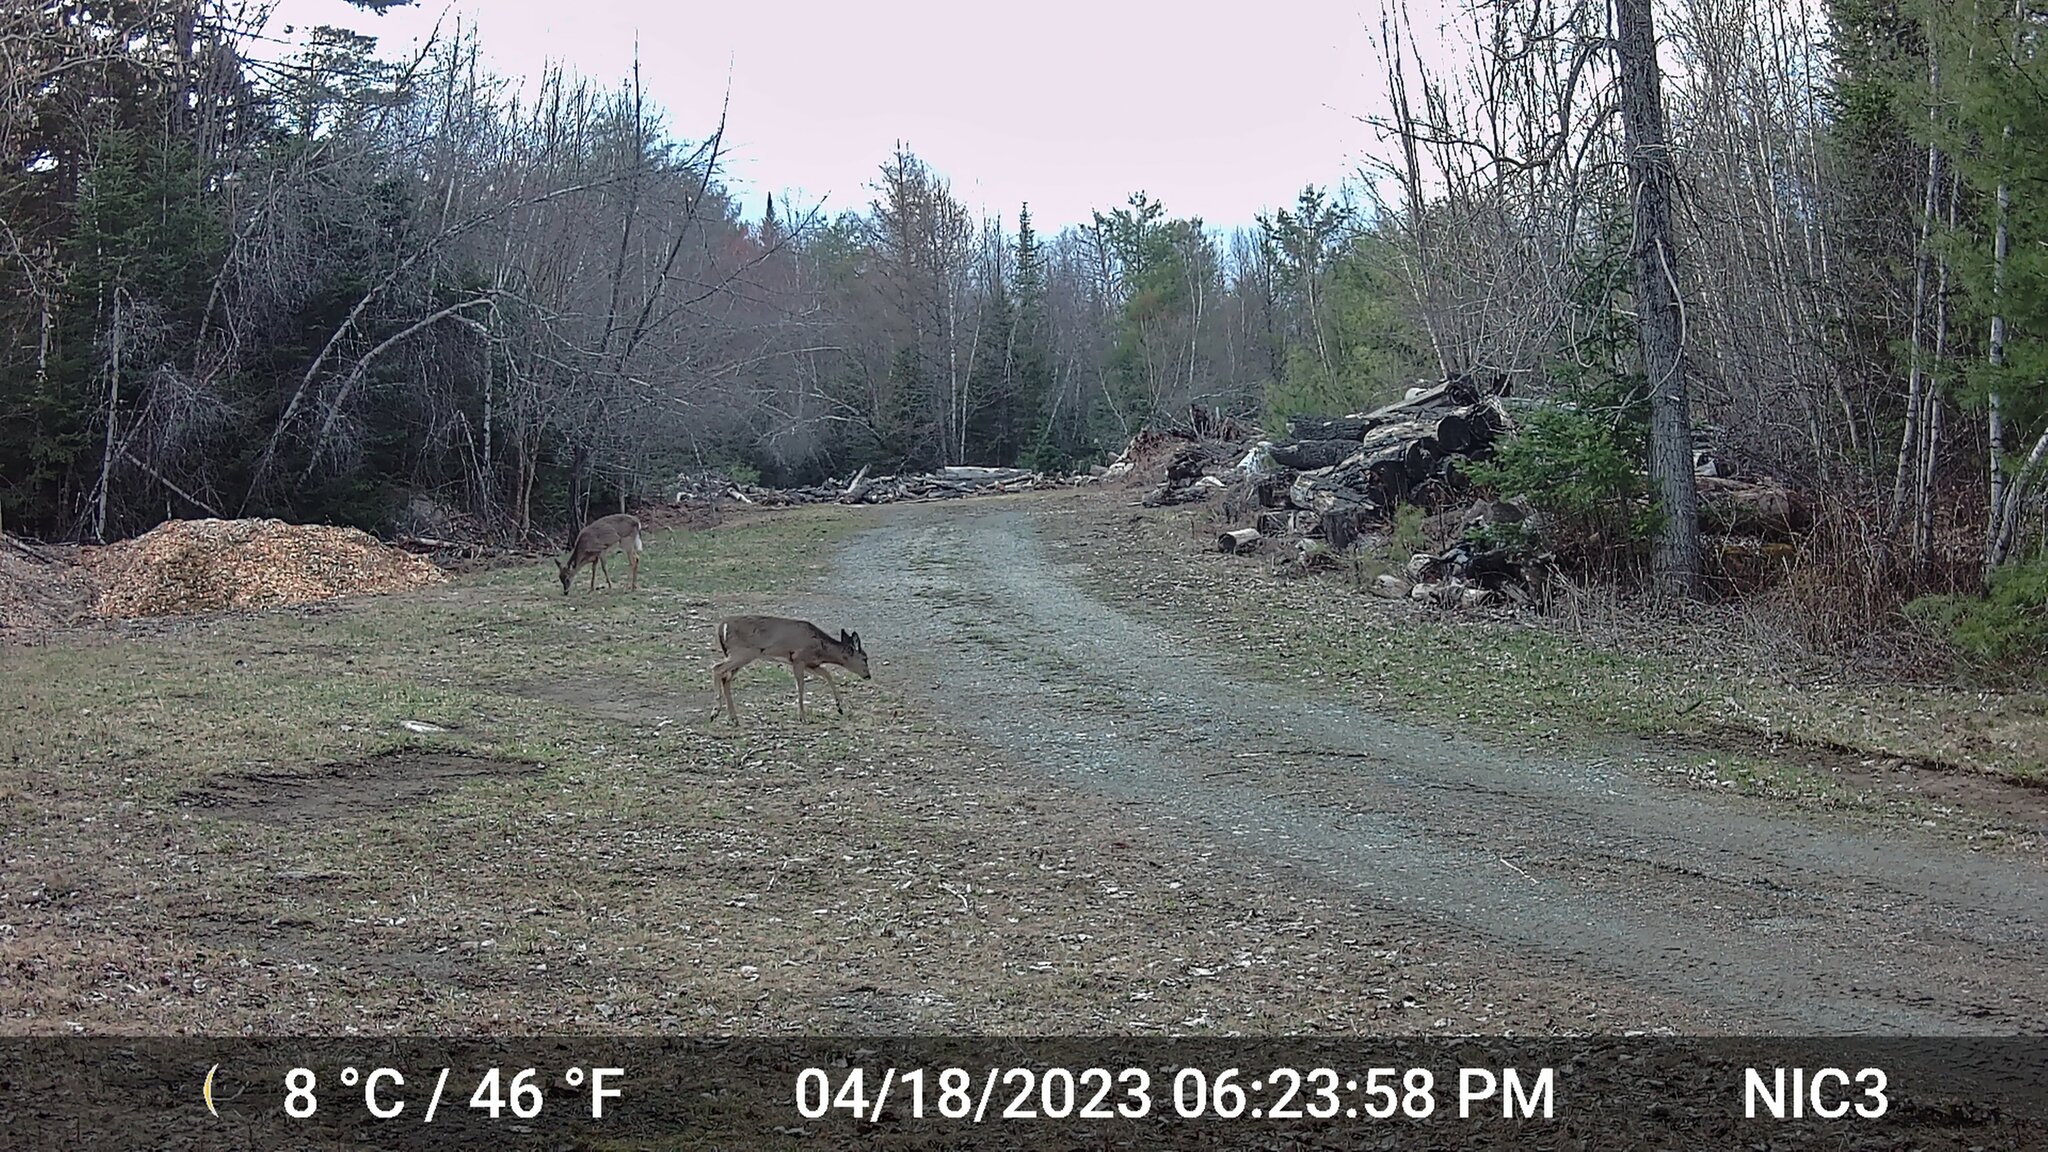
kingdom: Animalia
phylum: Chordata
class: Mammalia
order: Artiodactyla
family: Cervidae
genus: Odocoileus
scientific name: Odocoileus virginianus
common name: White-tailed deer
